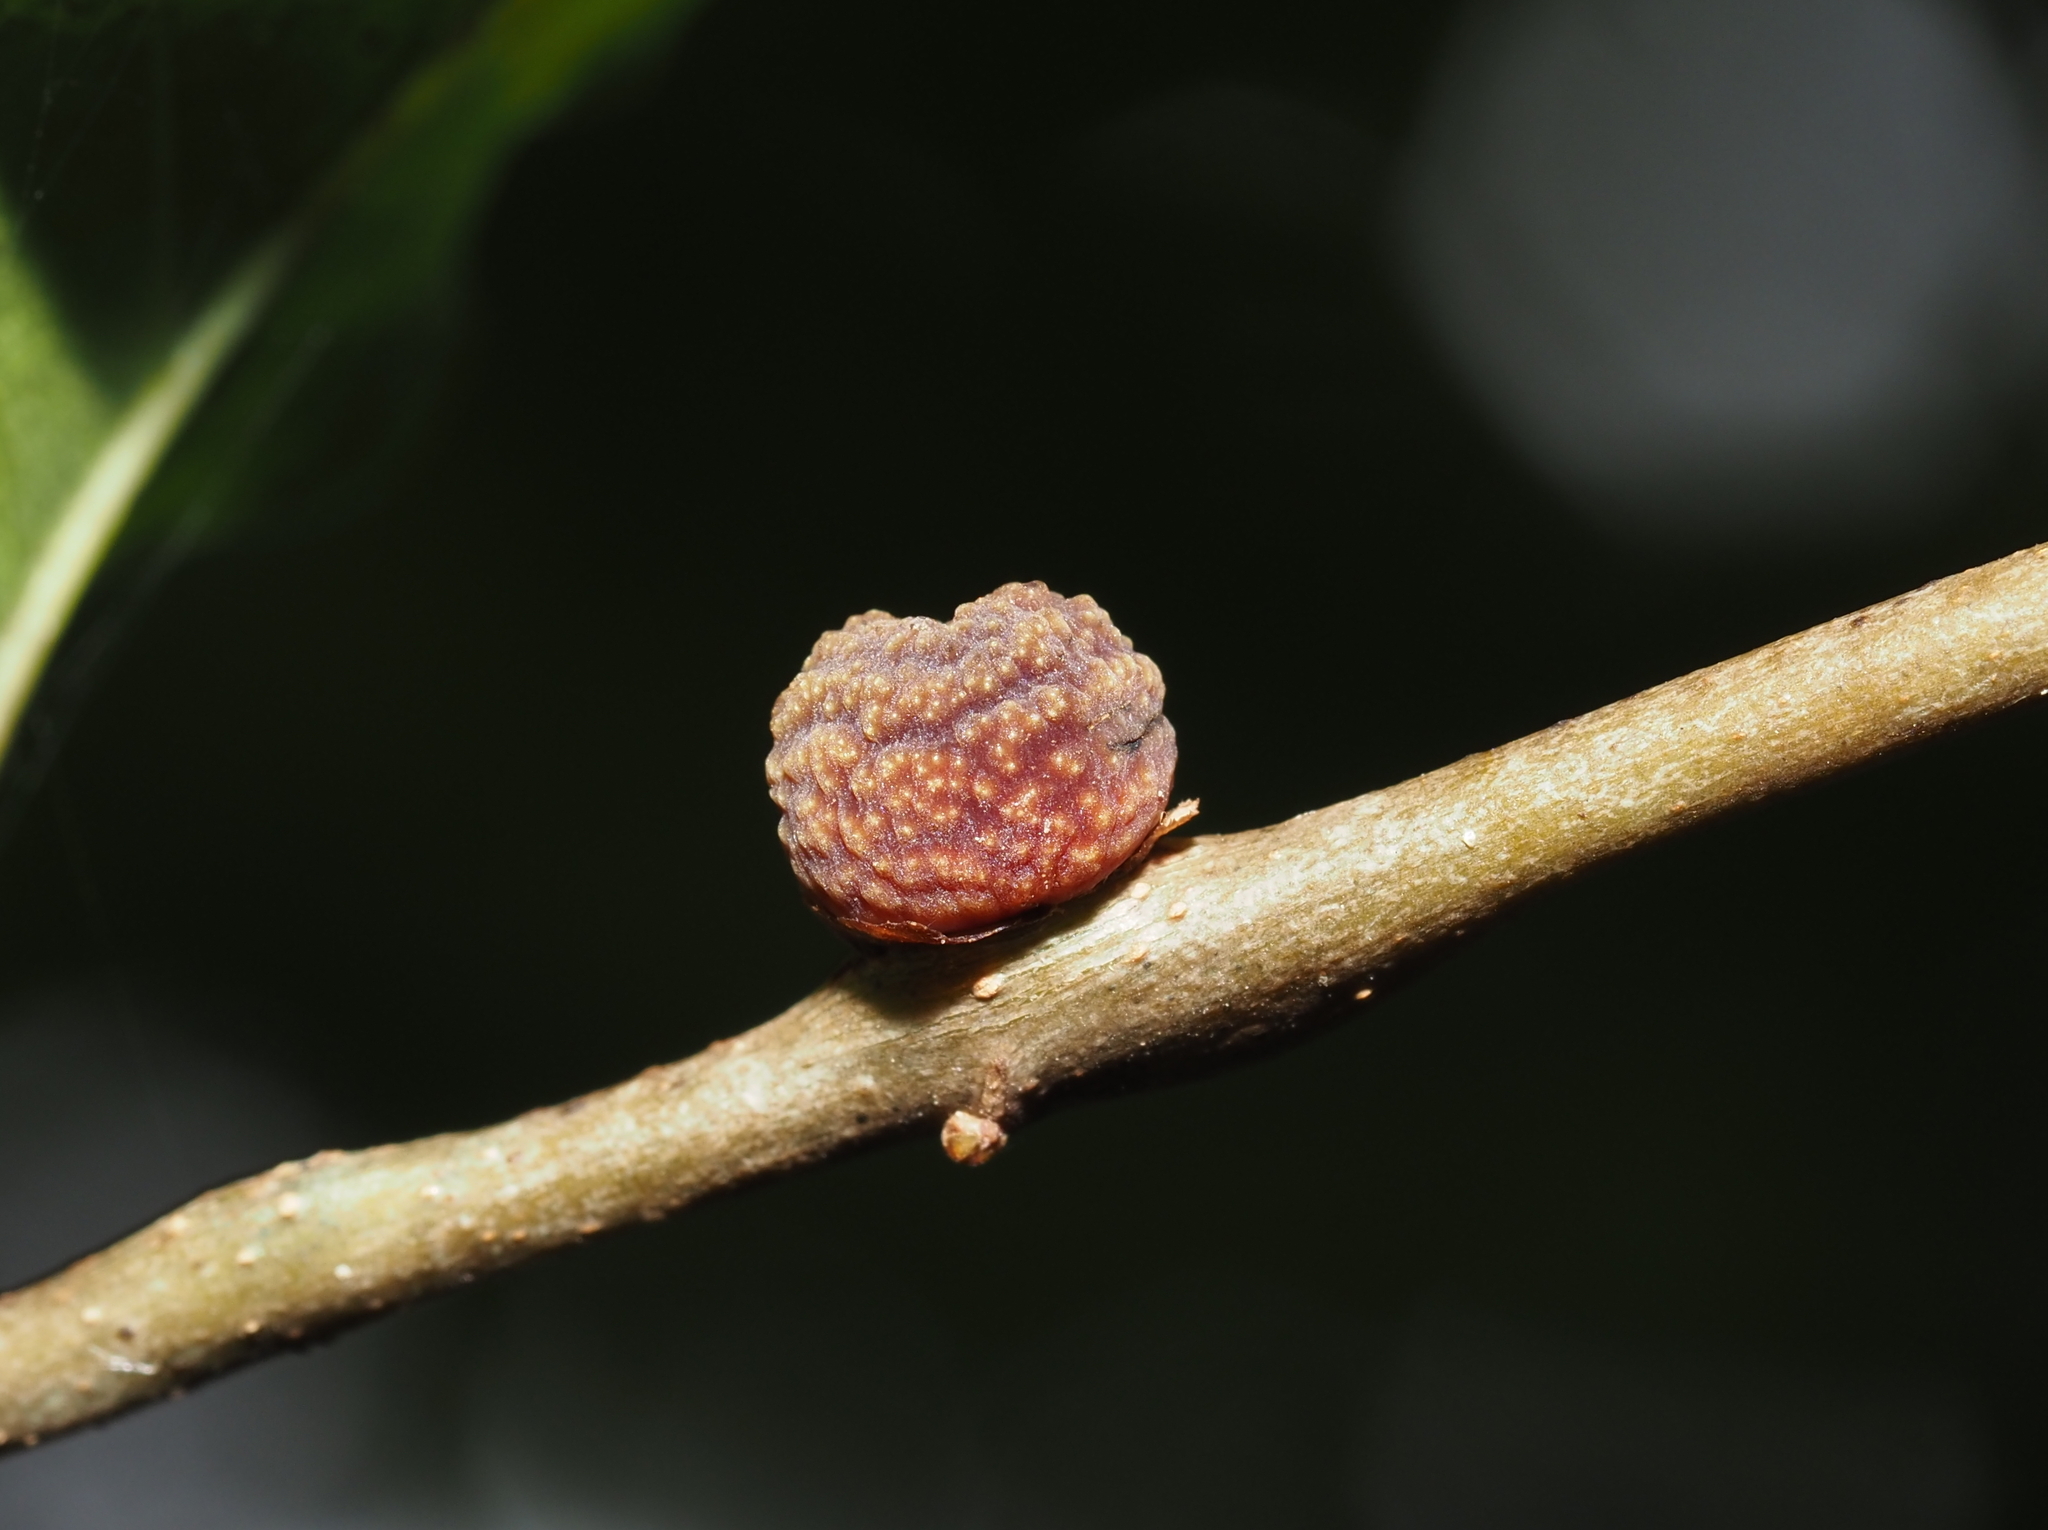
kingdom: Animalia
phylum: Arthropoda
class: Insecta
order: Hymenoptera
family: Cynipidae
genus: Kokkocynips
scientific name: Kokkocynips imbricariae
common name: Banded bullet gall wasp
